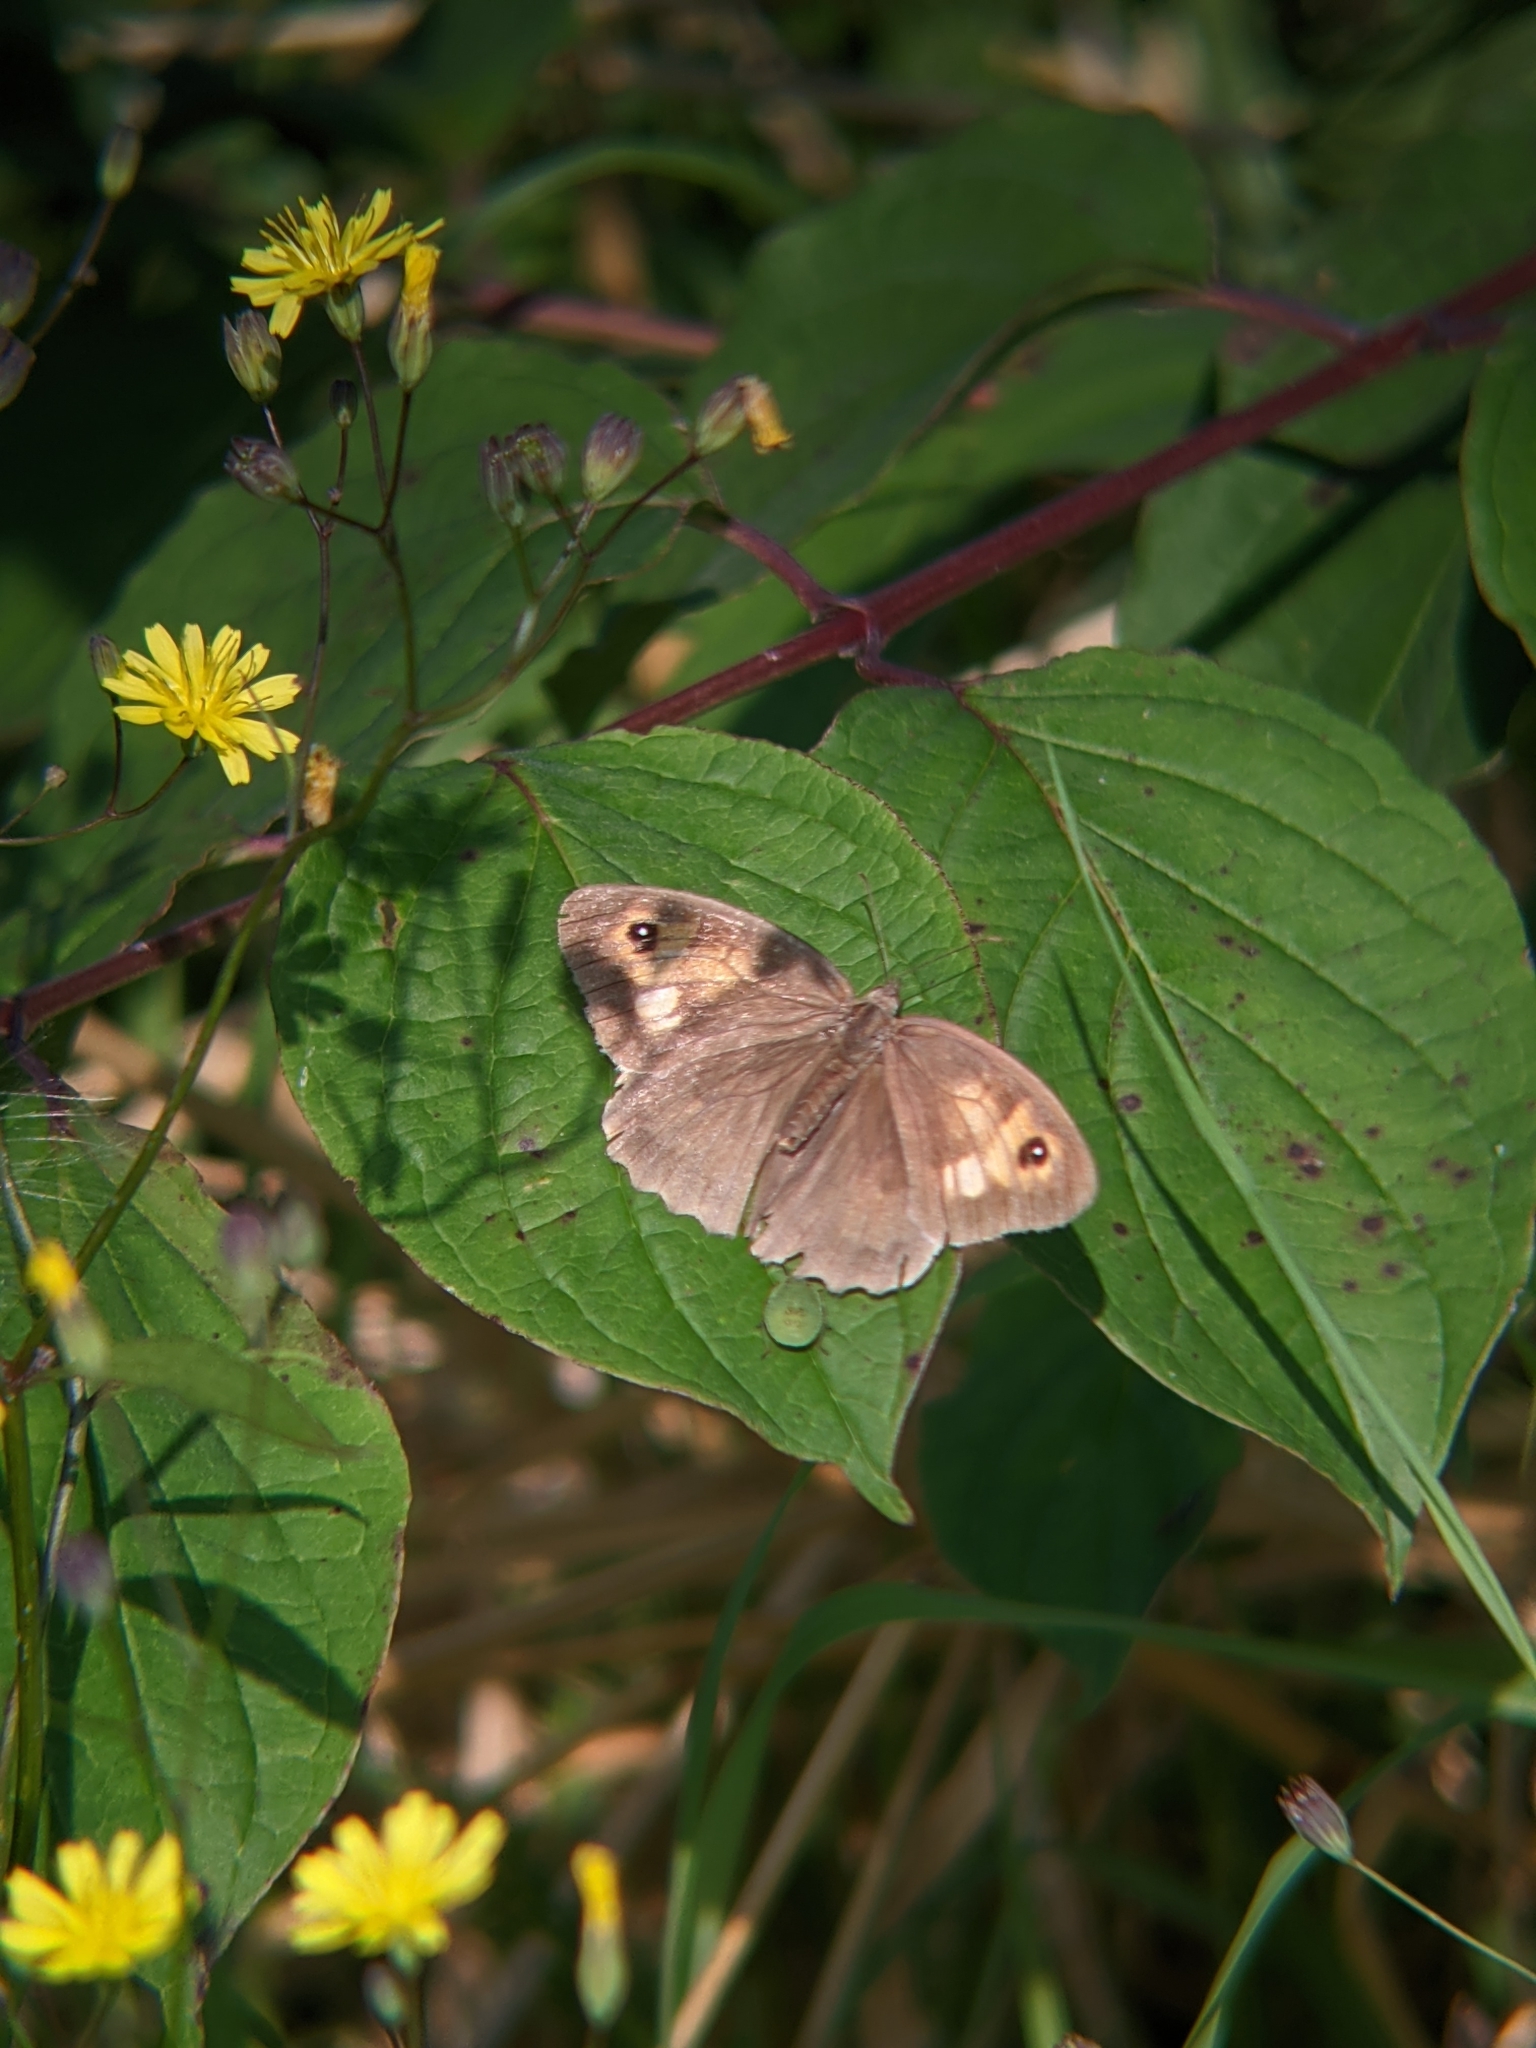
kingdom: Animalia
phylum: Arthropoda
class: Insecta
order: Lepidoptera
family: Nymphalidae
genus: Maniola
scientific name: Maniola jurtina
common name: Meadow brown
